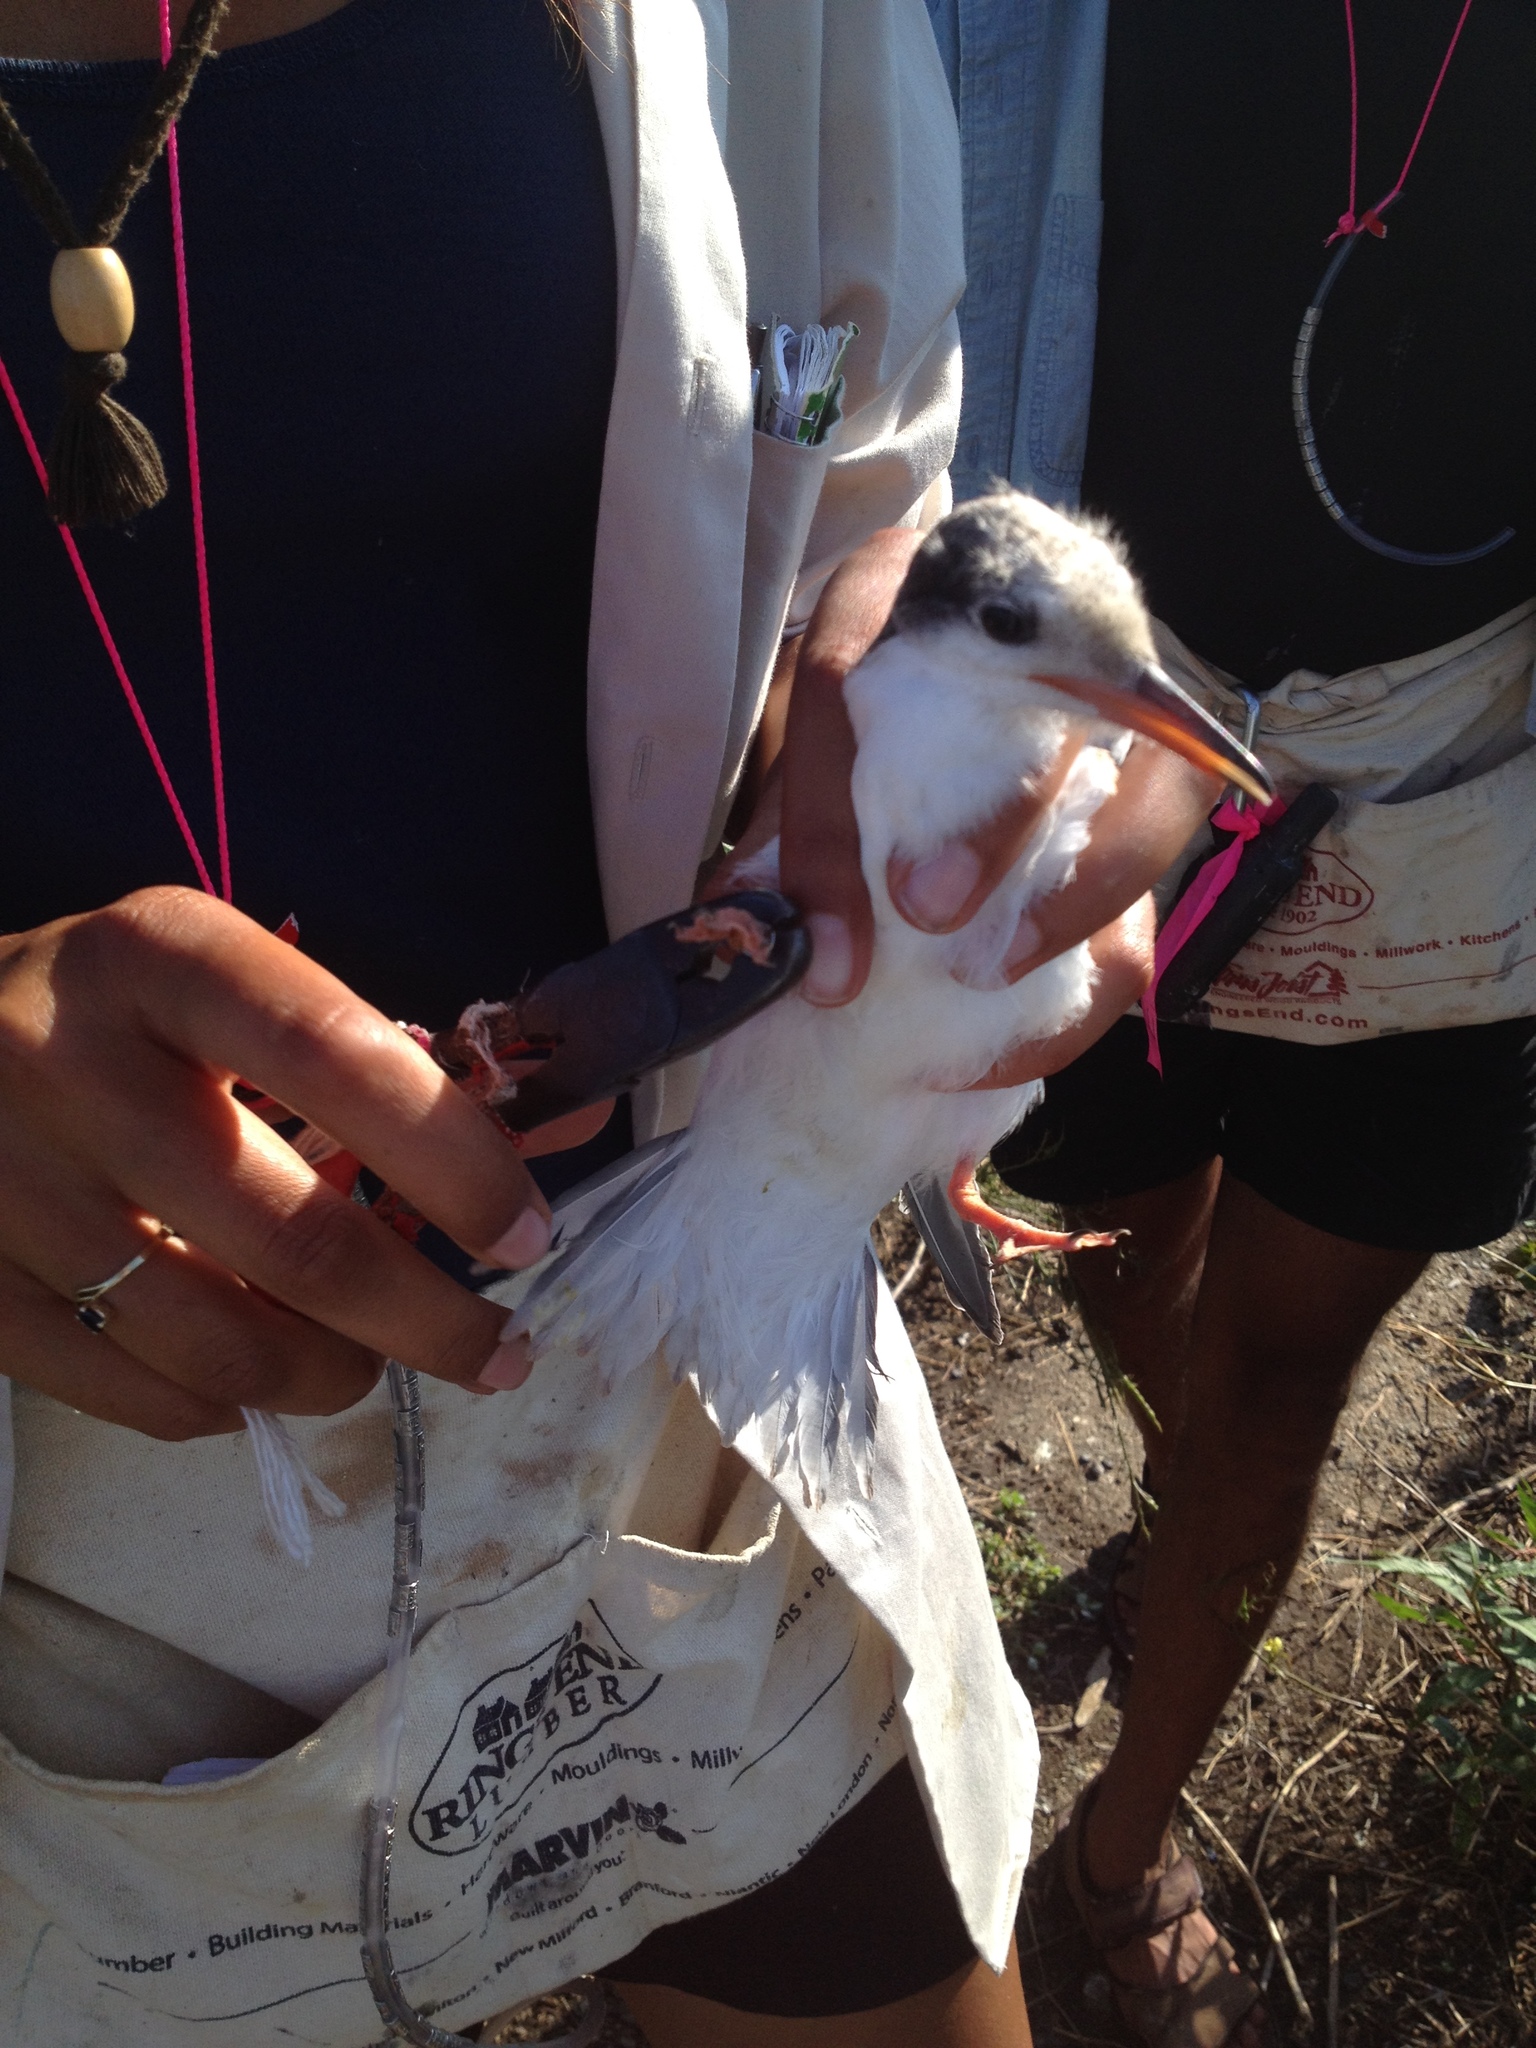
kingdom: Animalia
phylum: Chordata
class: Aves
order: Charadriiformes
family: Laridae
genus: Sterna
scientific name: Sterna hirundo
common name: Common tern
